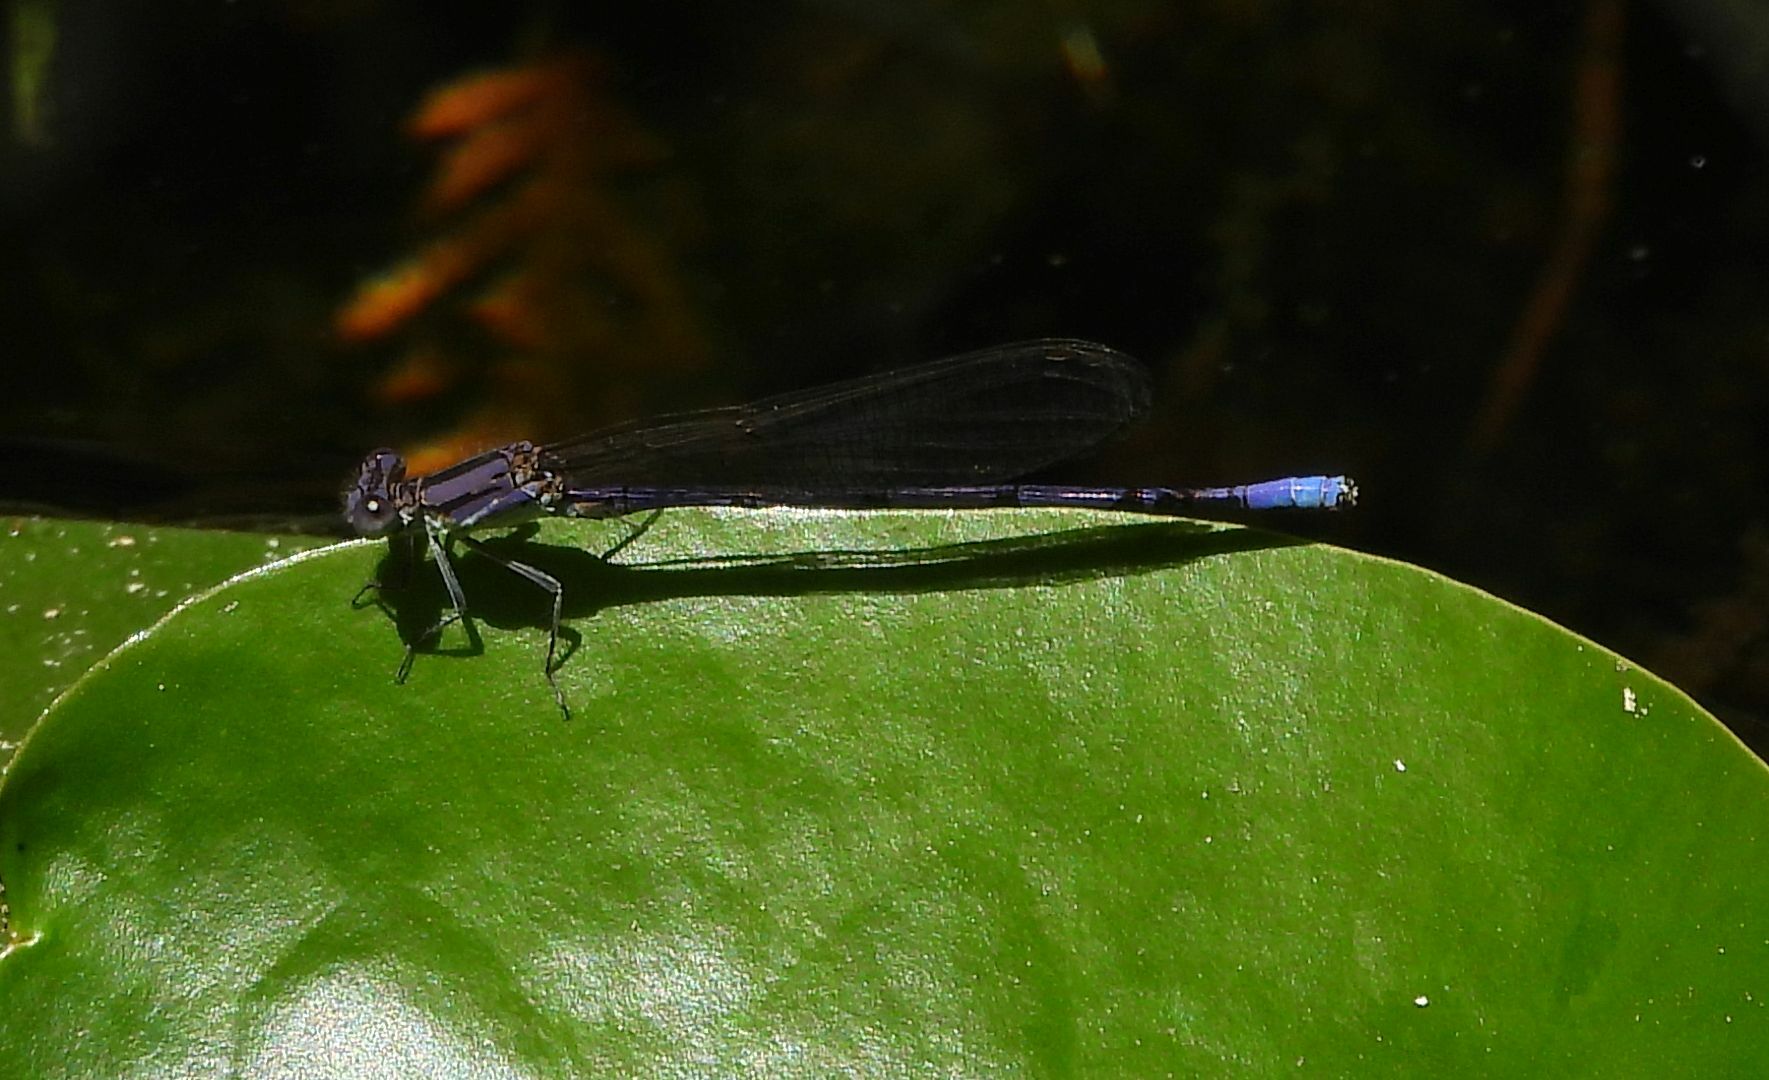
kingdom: Animalia
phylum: Arthropoda
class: Insecta
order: Odonata
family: Coenagrionidae
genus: Argia
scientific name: Argia fumipennis
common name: Variable dancer
